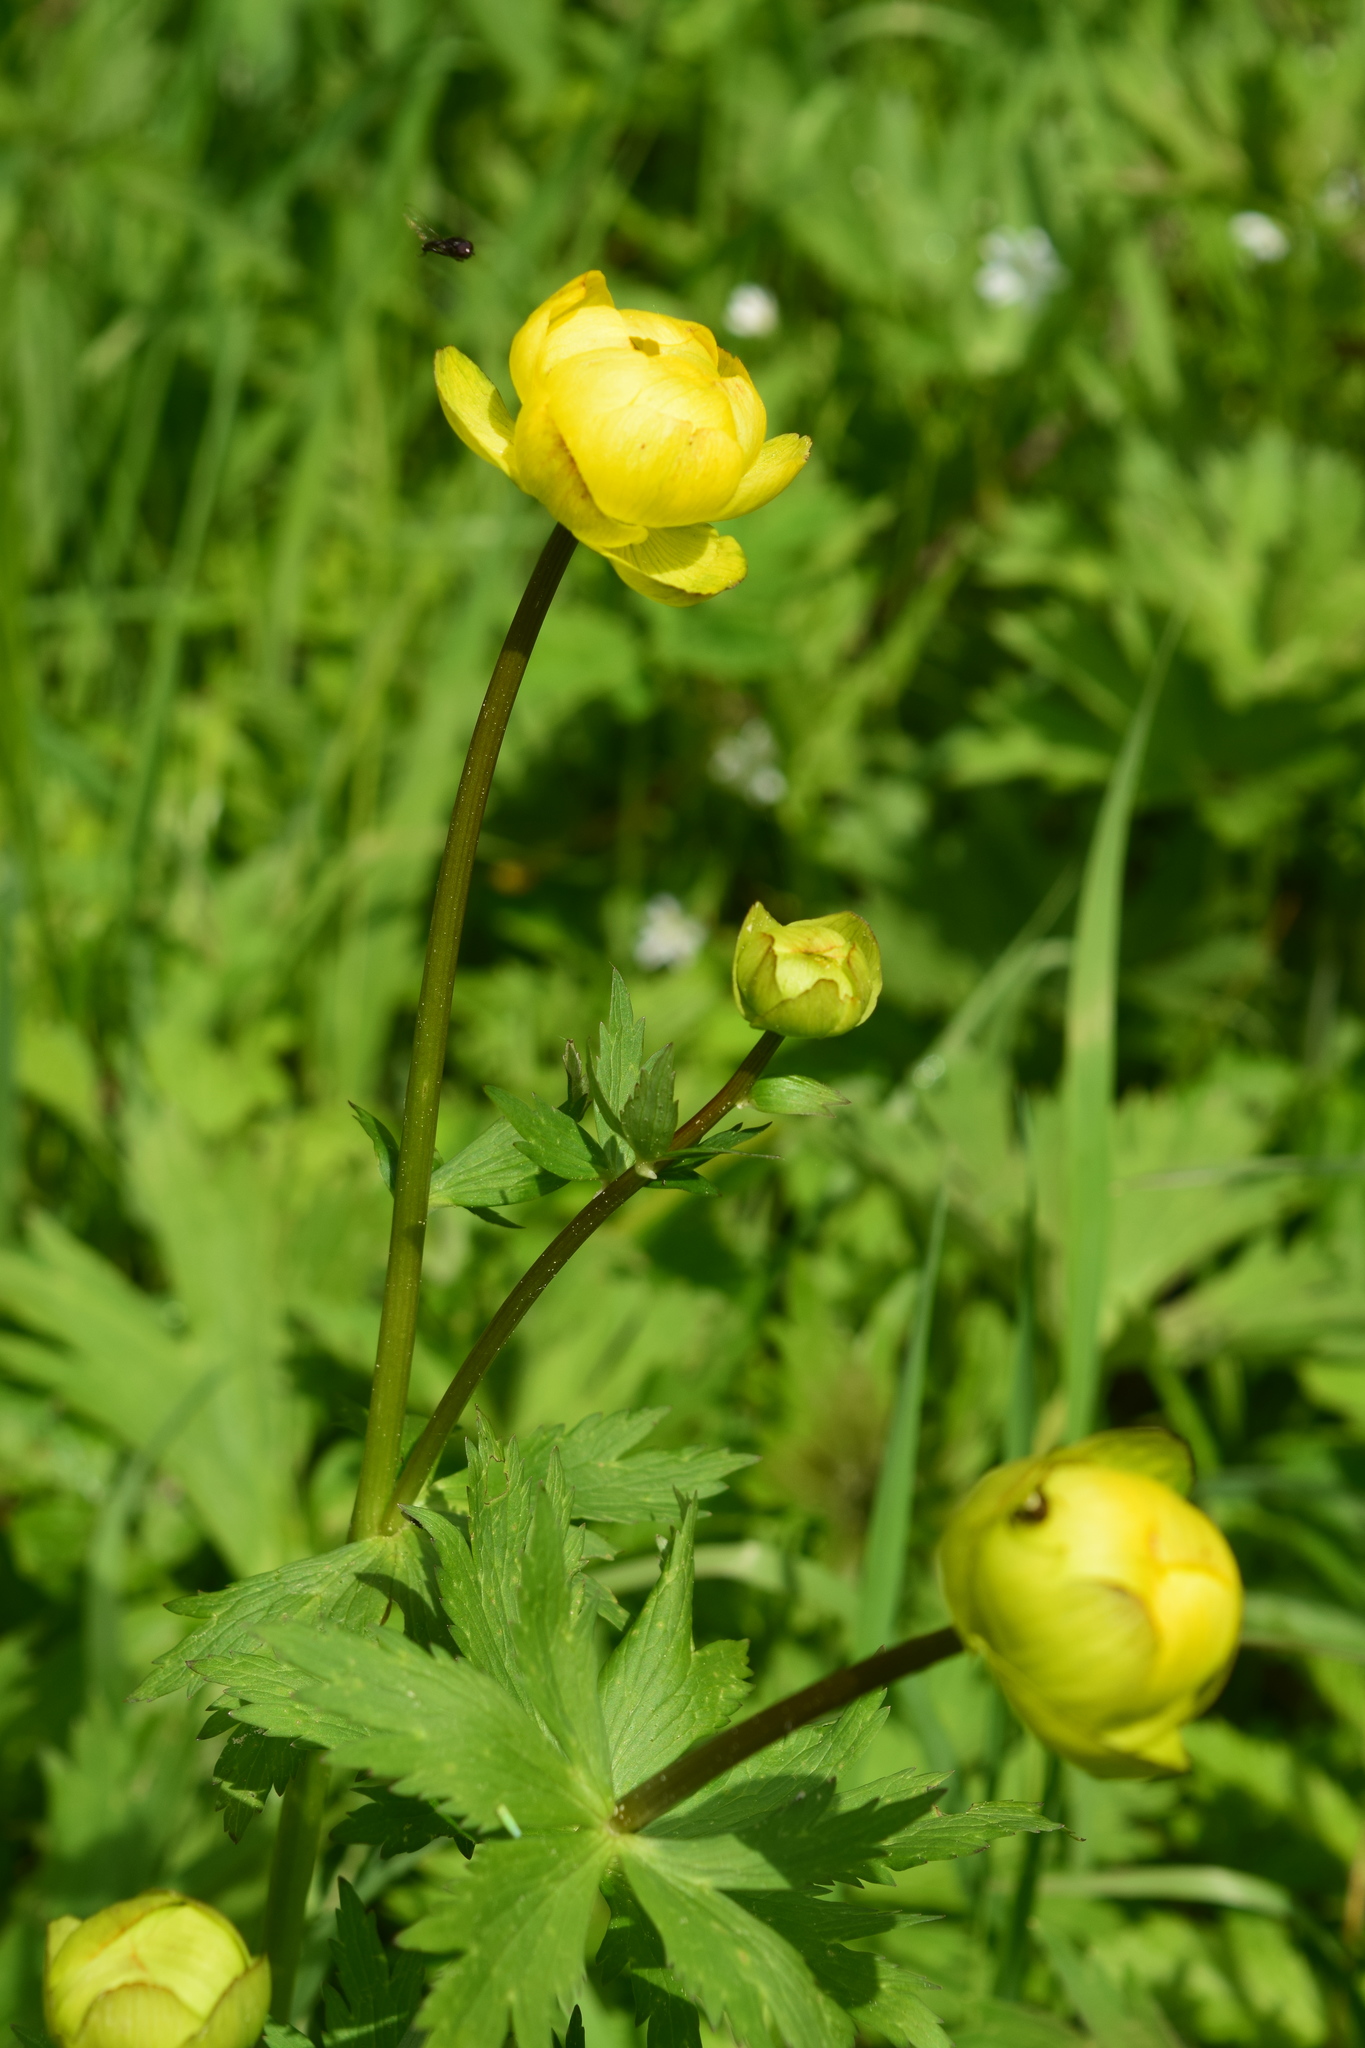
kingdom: Plantae
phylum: Tracheophyta
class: Magnoliopsida
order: Ranunculales
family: Ranunculaceae
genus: Trollius
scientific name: Trollius europaeus
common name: European globeflower
